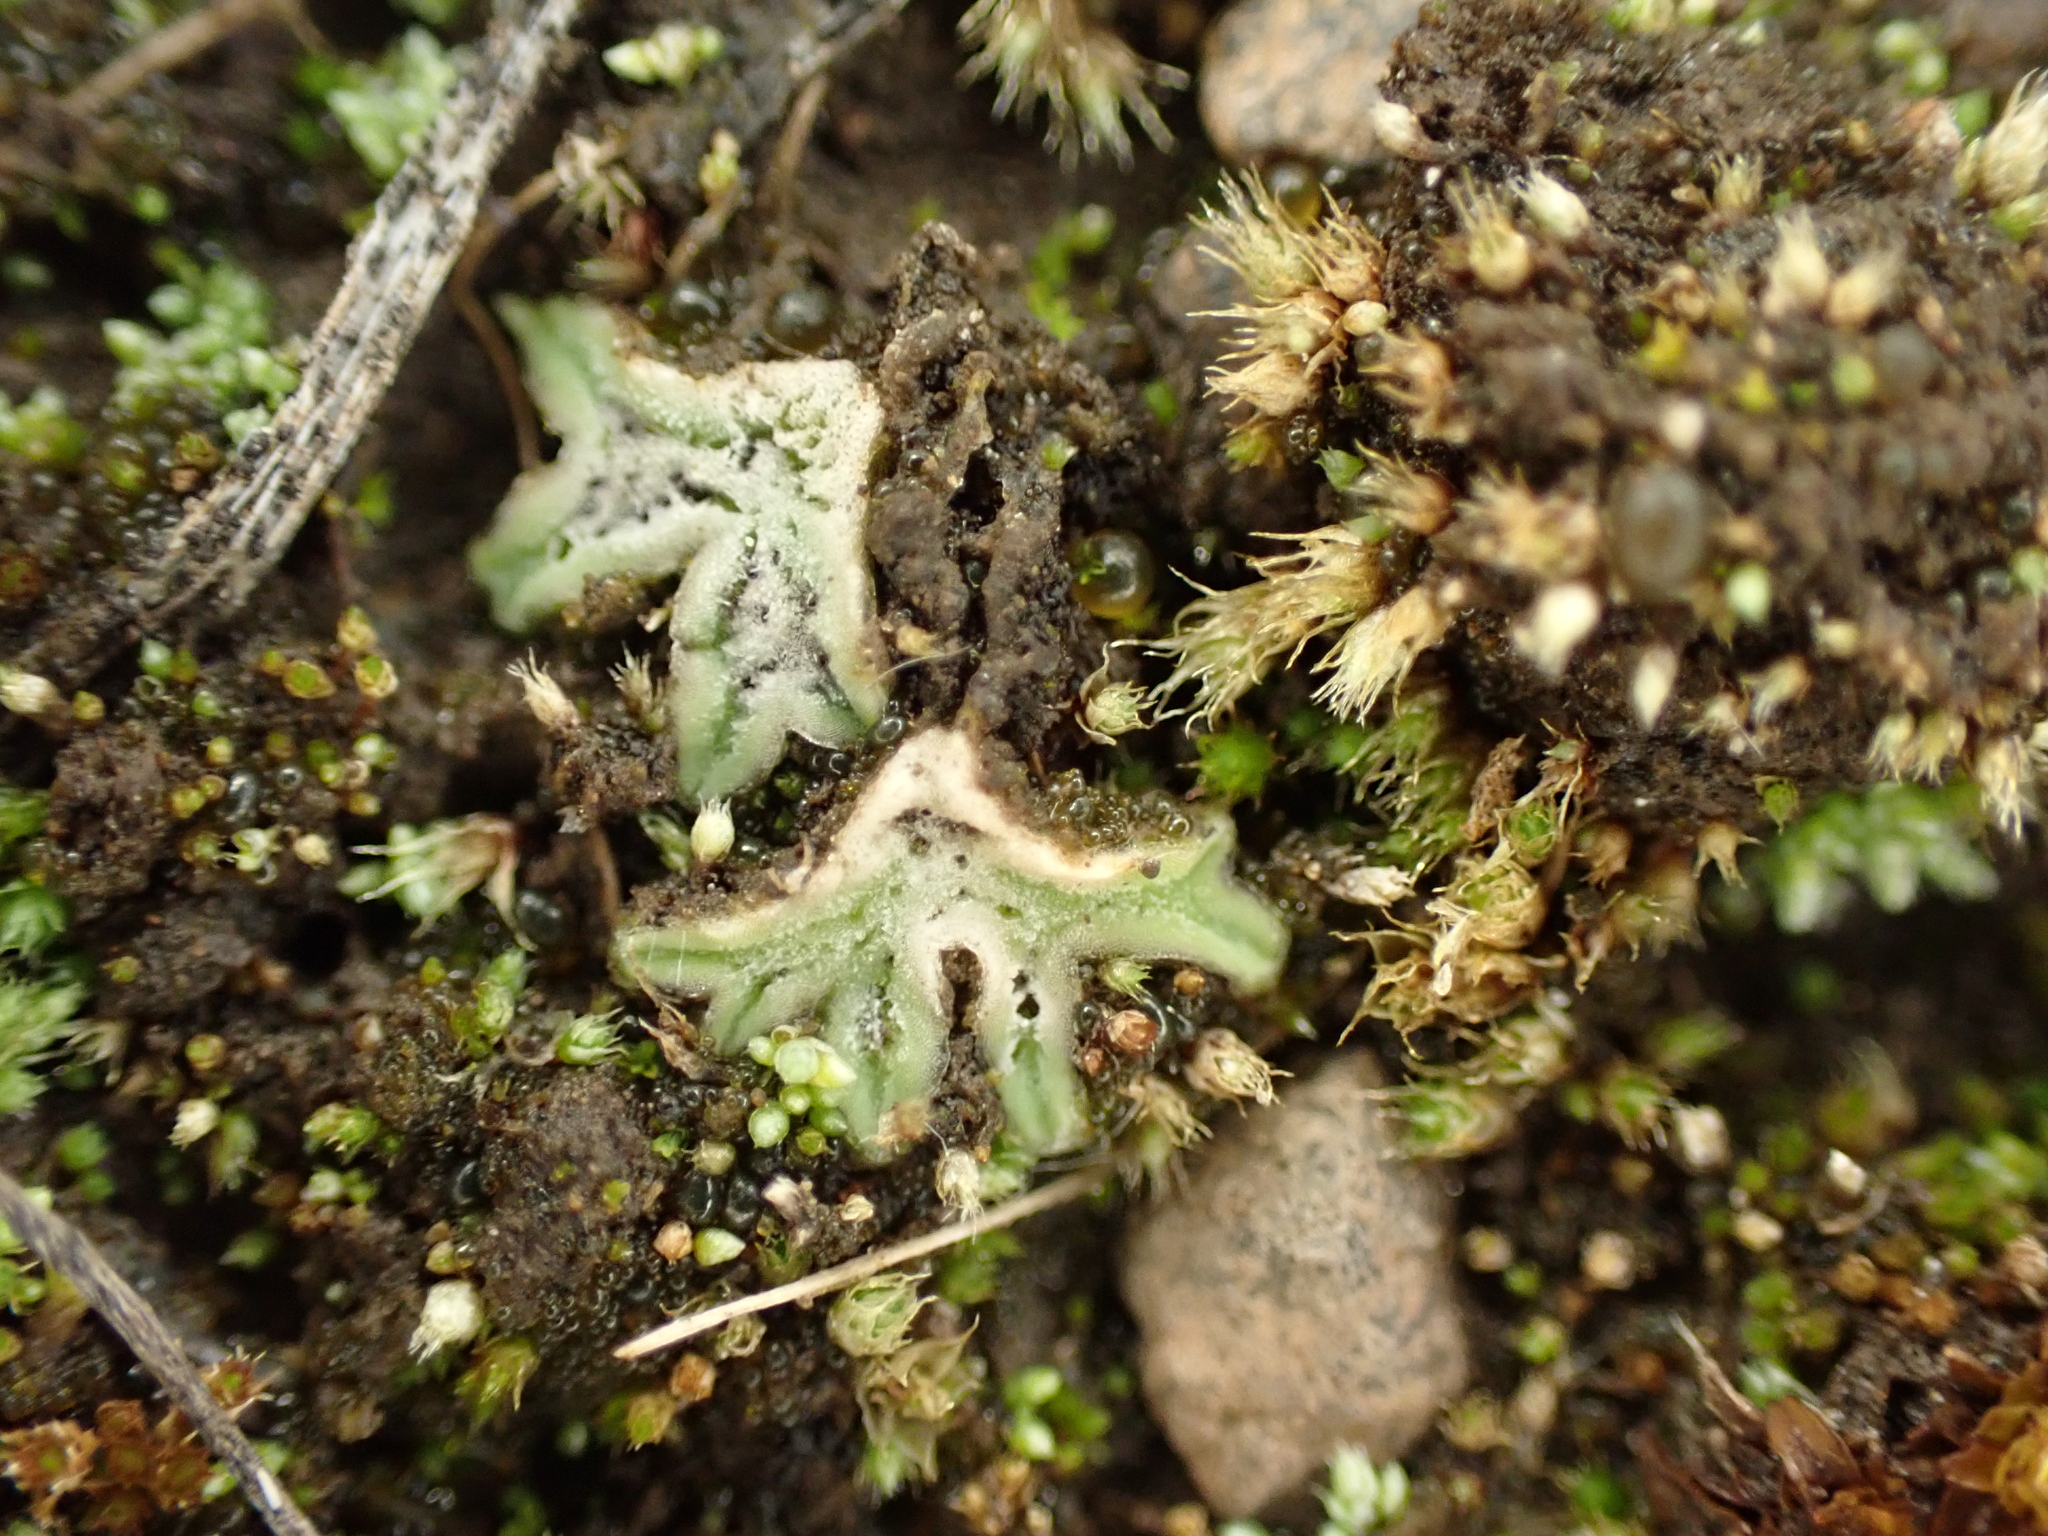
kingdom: Plantae
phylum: Marchantiophyta
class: Marchantiopsida
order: Marchantiales
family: Ricciaceae
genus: Riccia
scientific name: Riccia sorocarpa
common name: Common crystalwort
